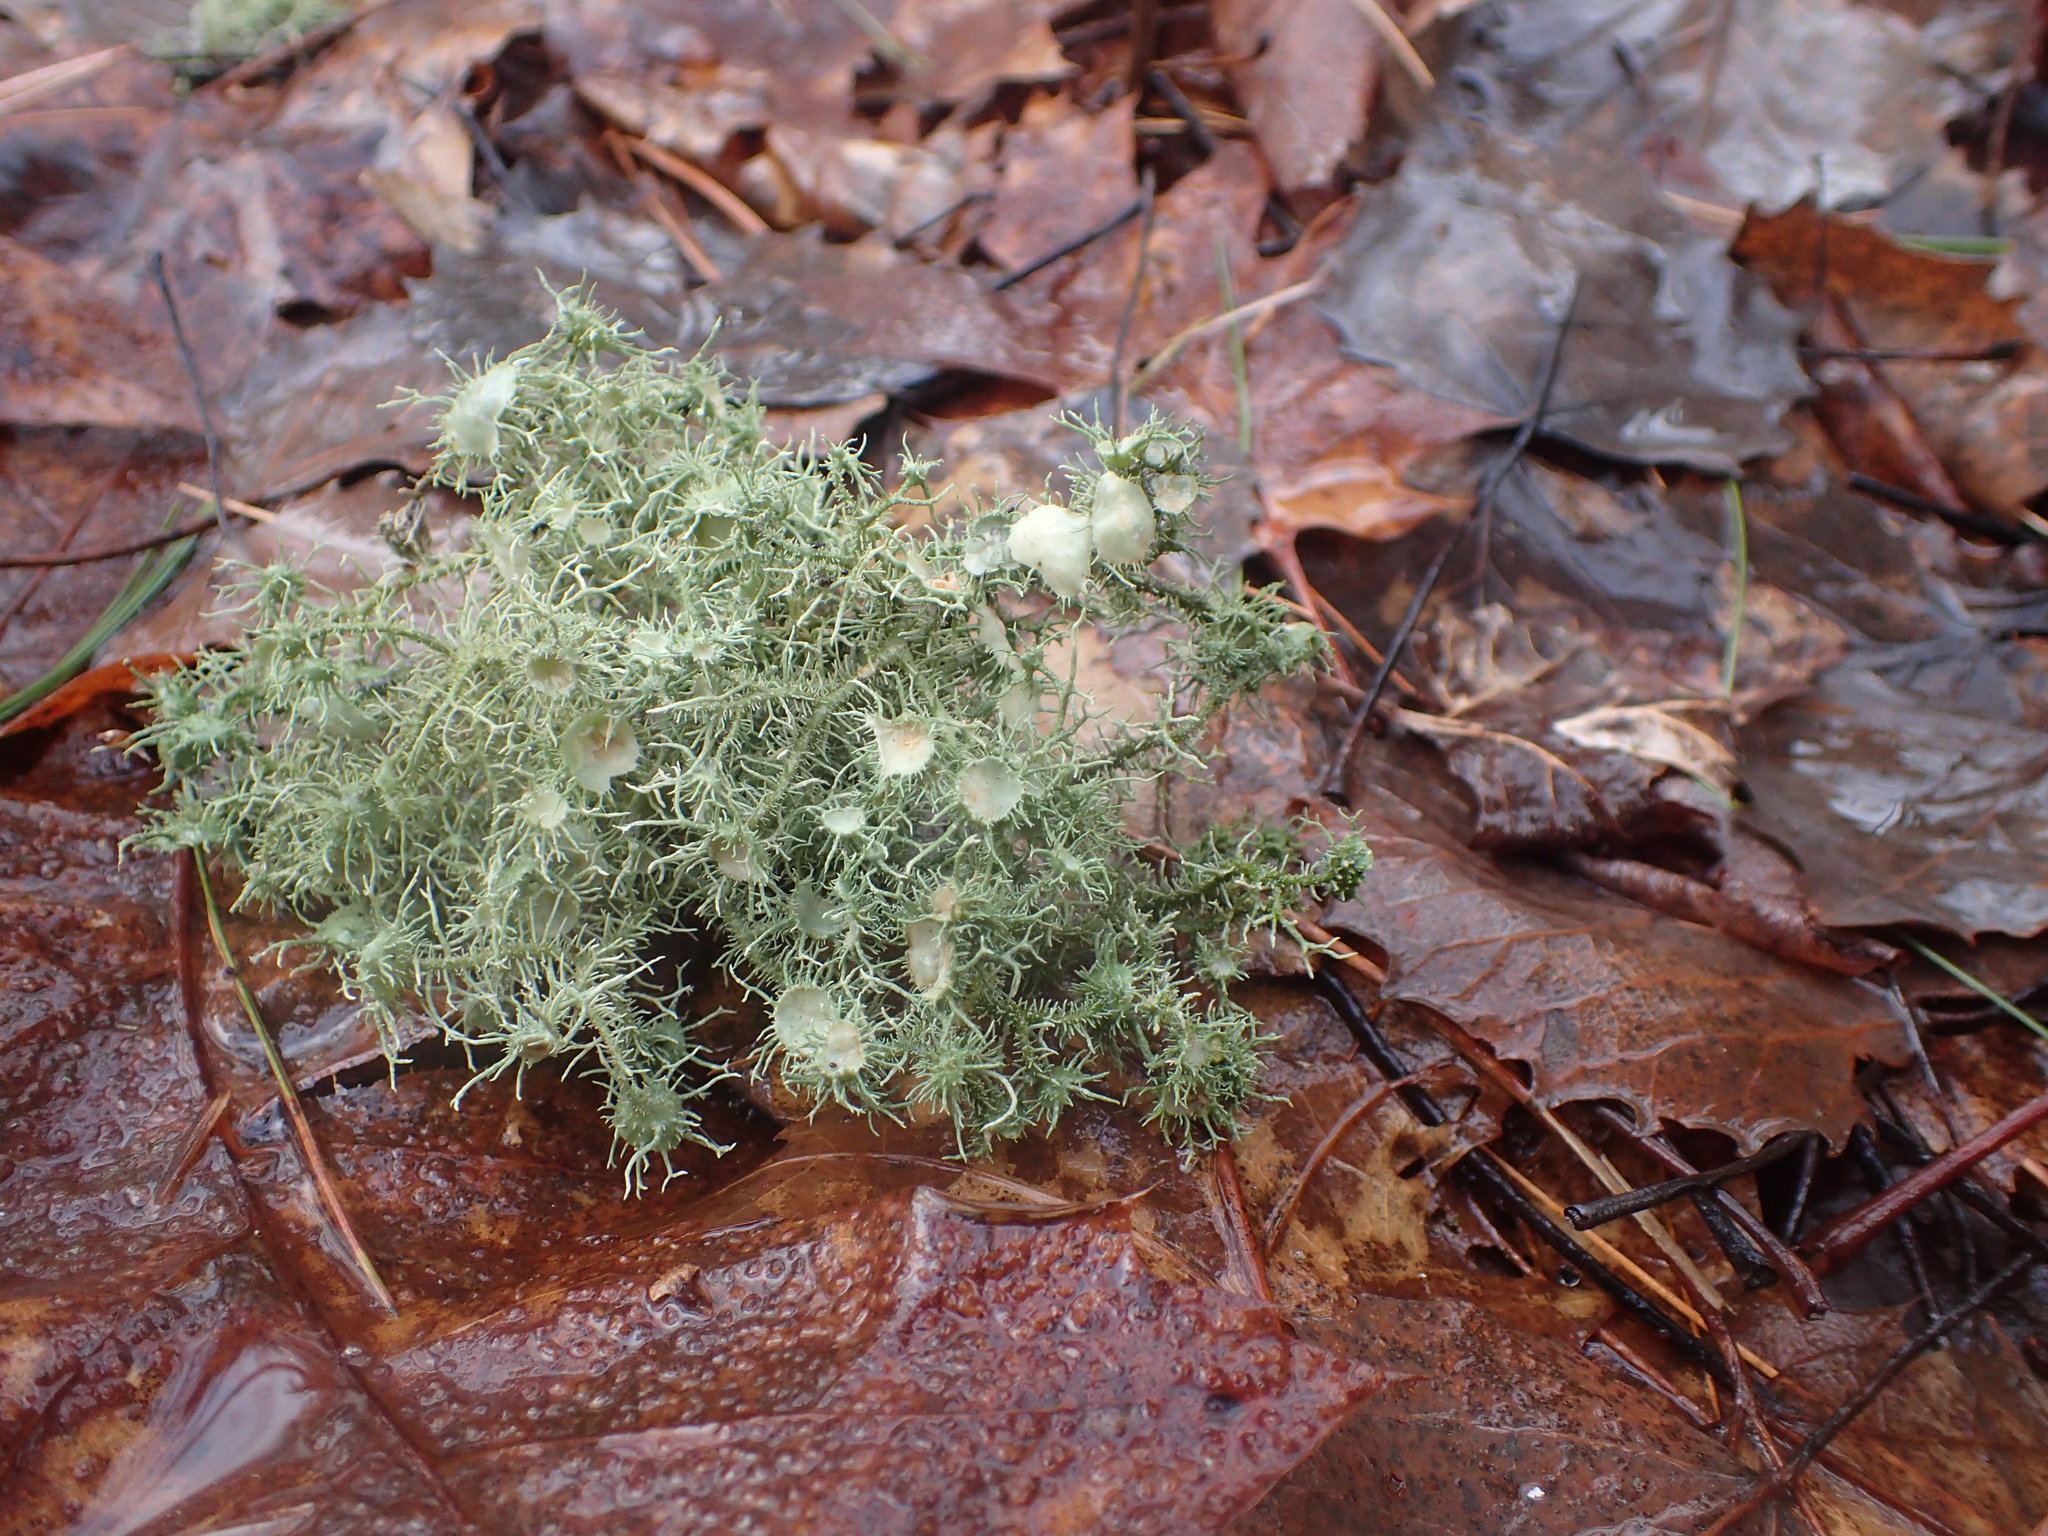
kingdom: Fungi
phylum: Ascomycota
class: Lecanoromycetes
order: Lecanorales
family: Parmeliaceae
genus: Usnea
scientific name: Usnea strigosa
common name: Bushy beard lichen
